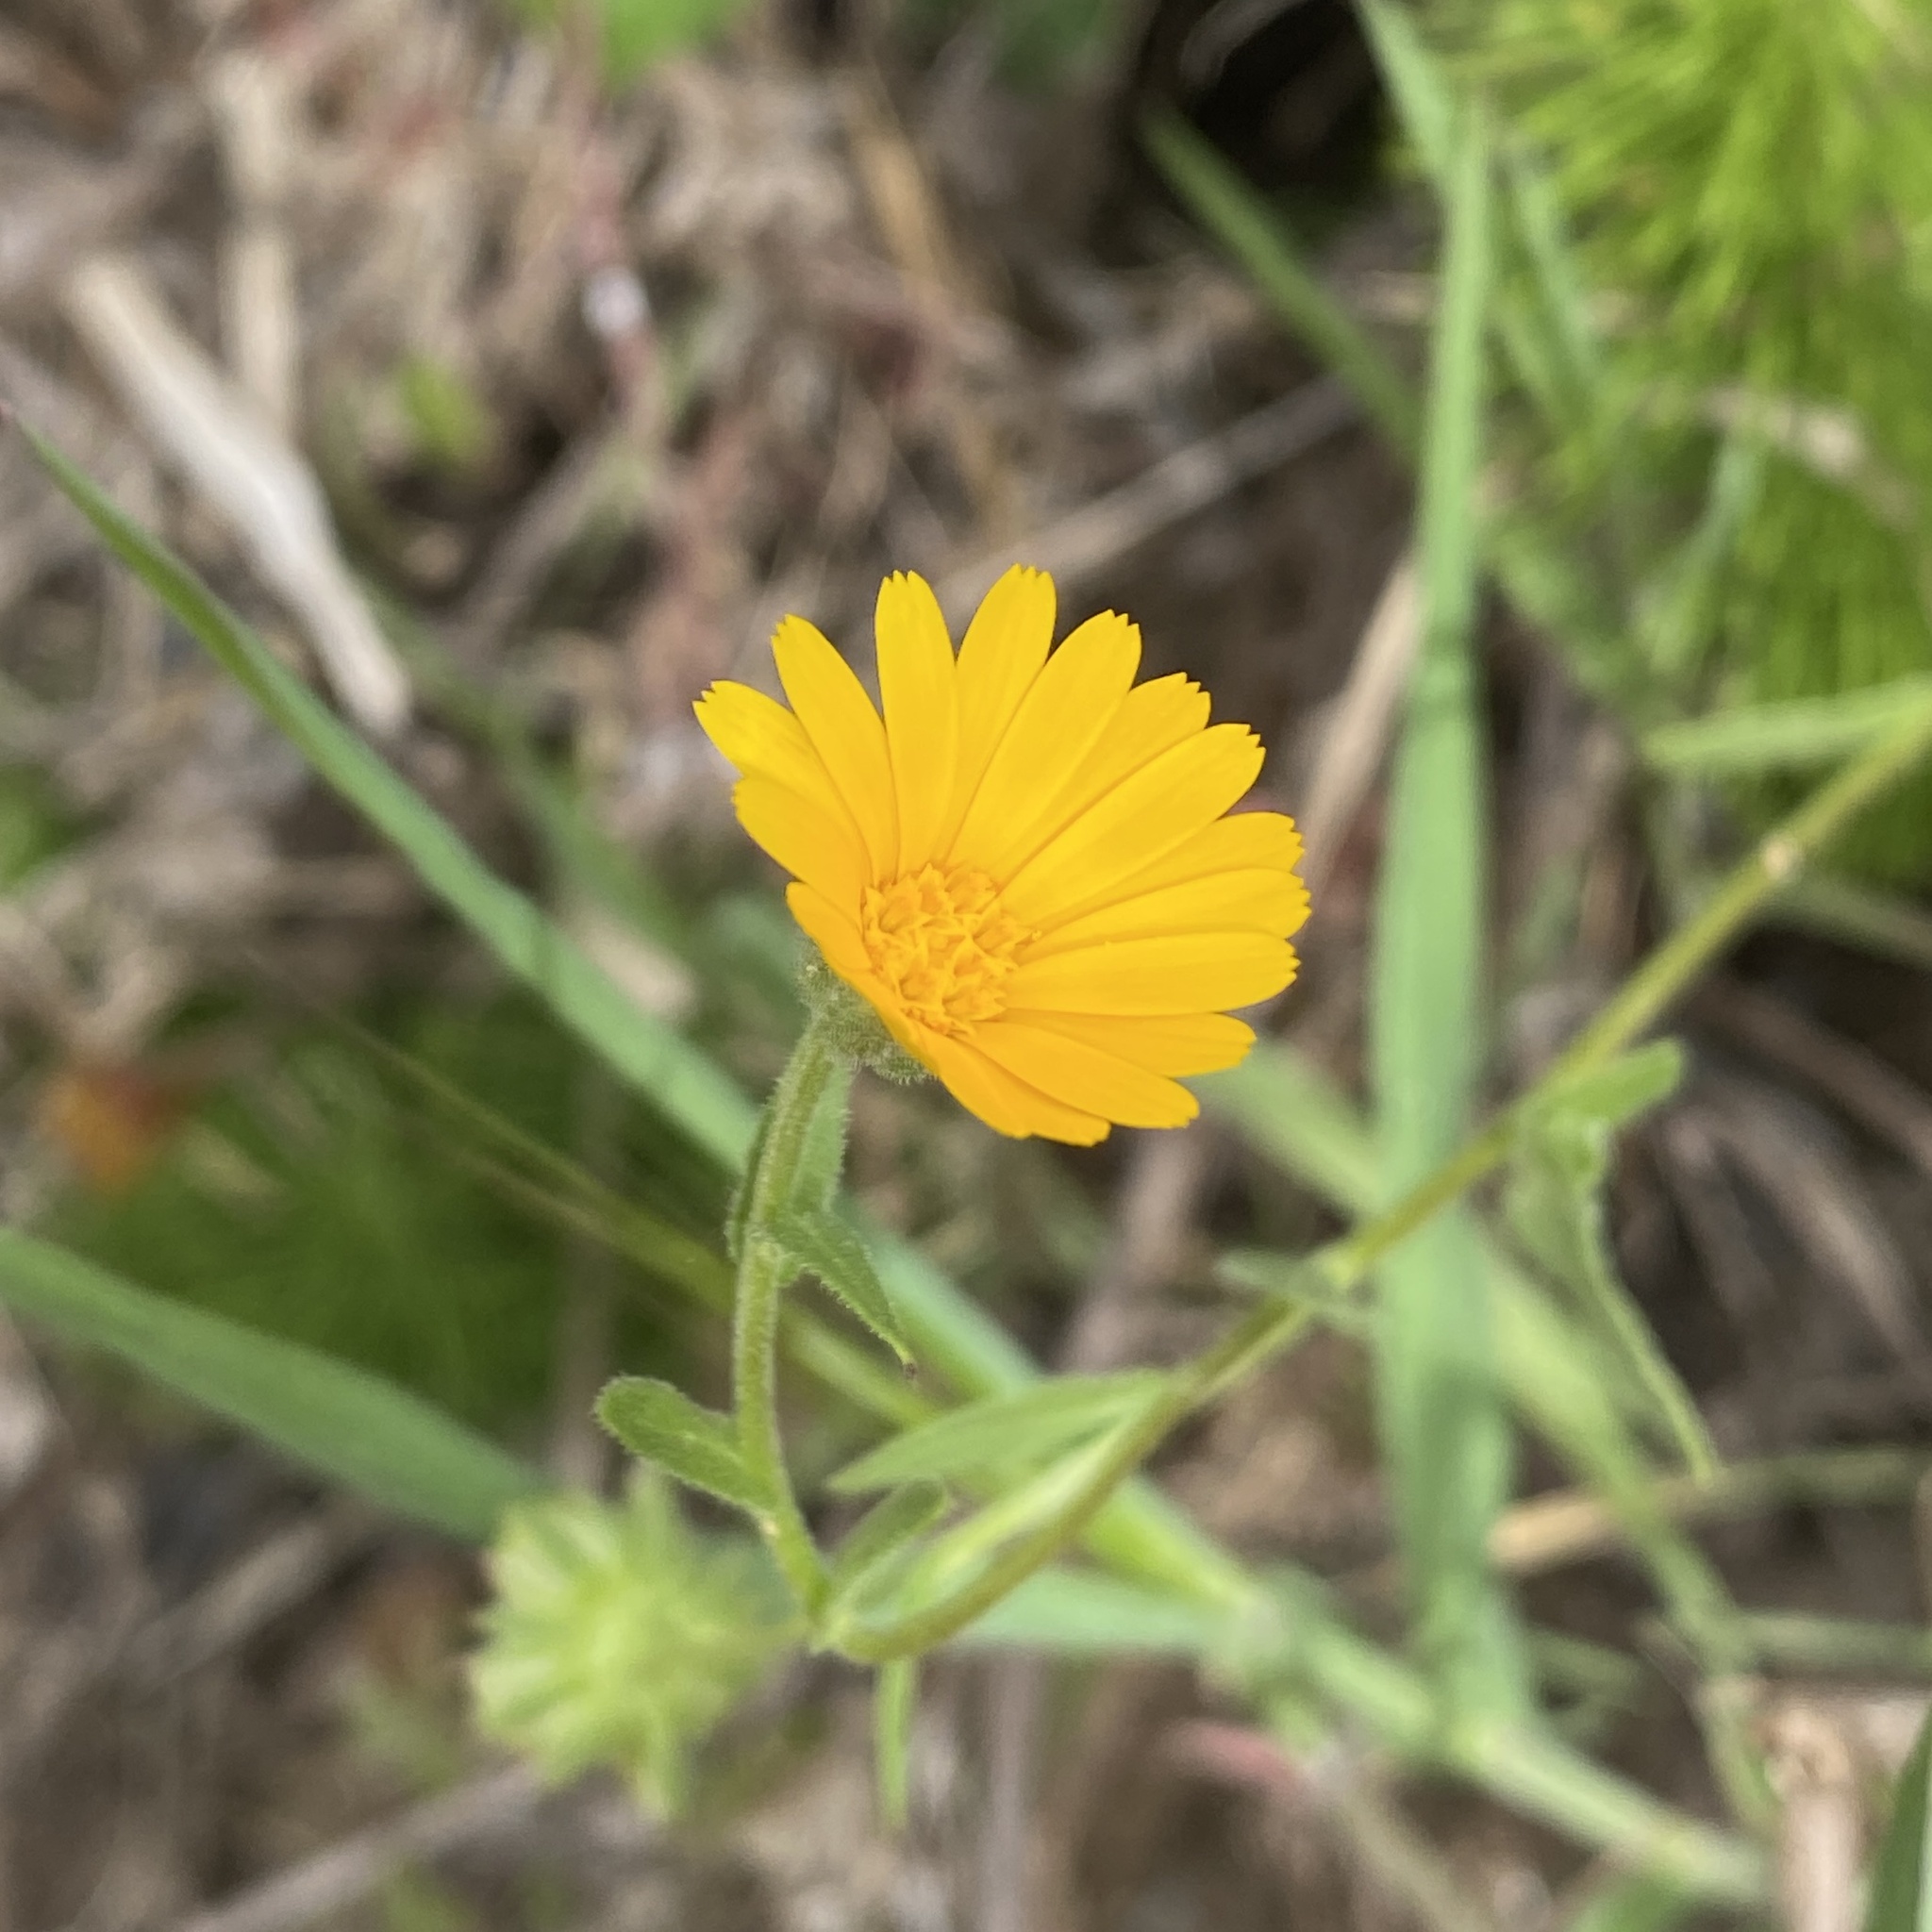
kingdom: Plantae
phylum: Tracheophyta
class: Magnoliopsida
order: Asterales
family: Asteraceae
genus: Calendula
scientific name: Calendula arvensis
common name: Field marigold
